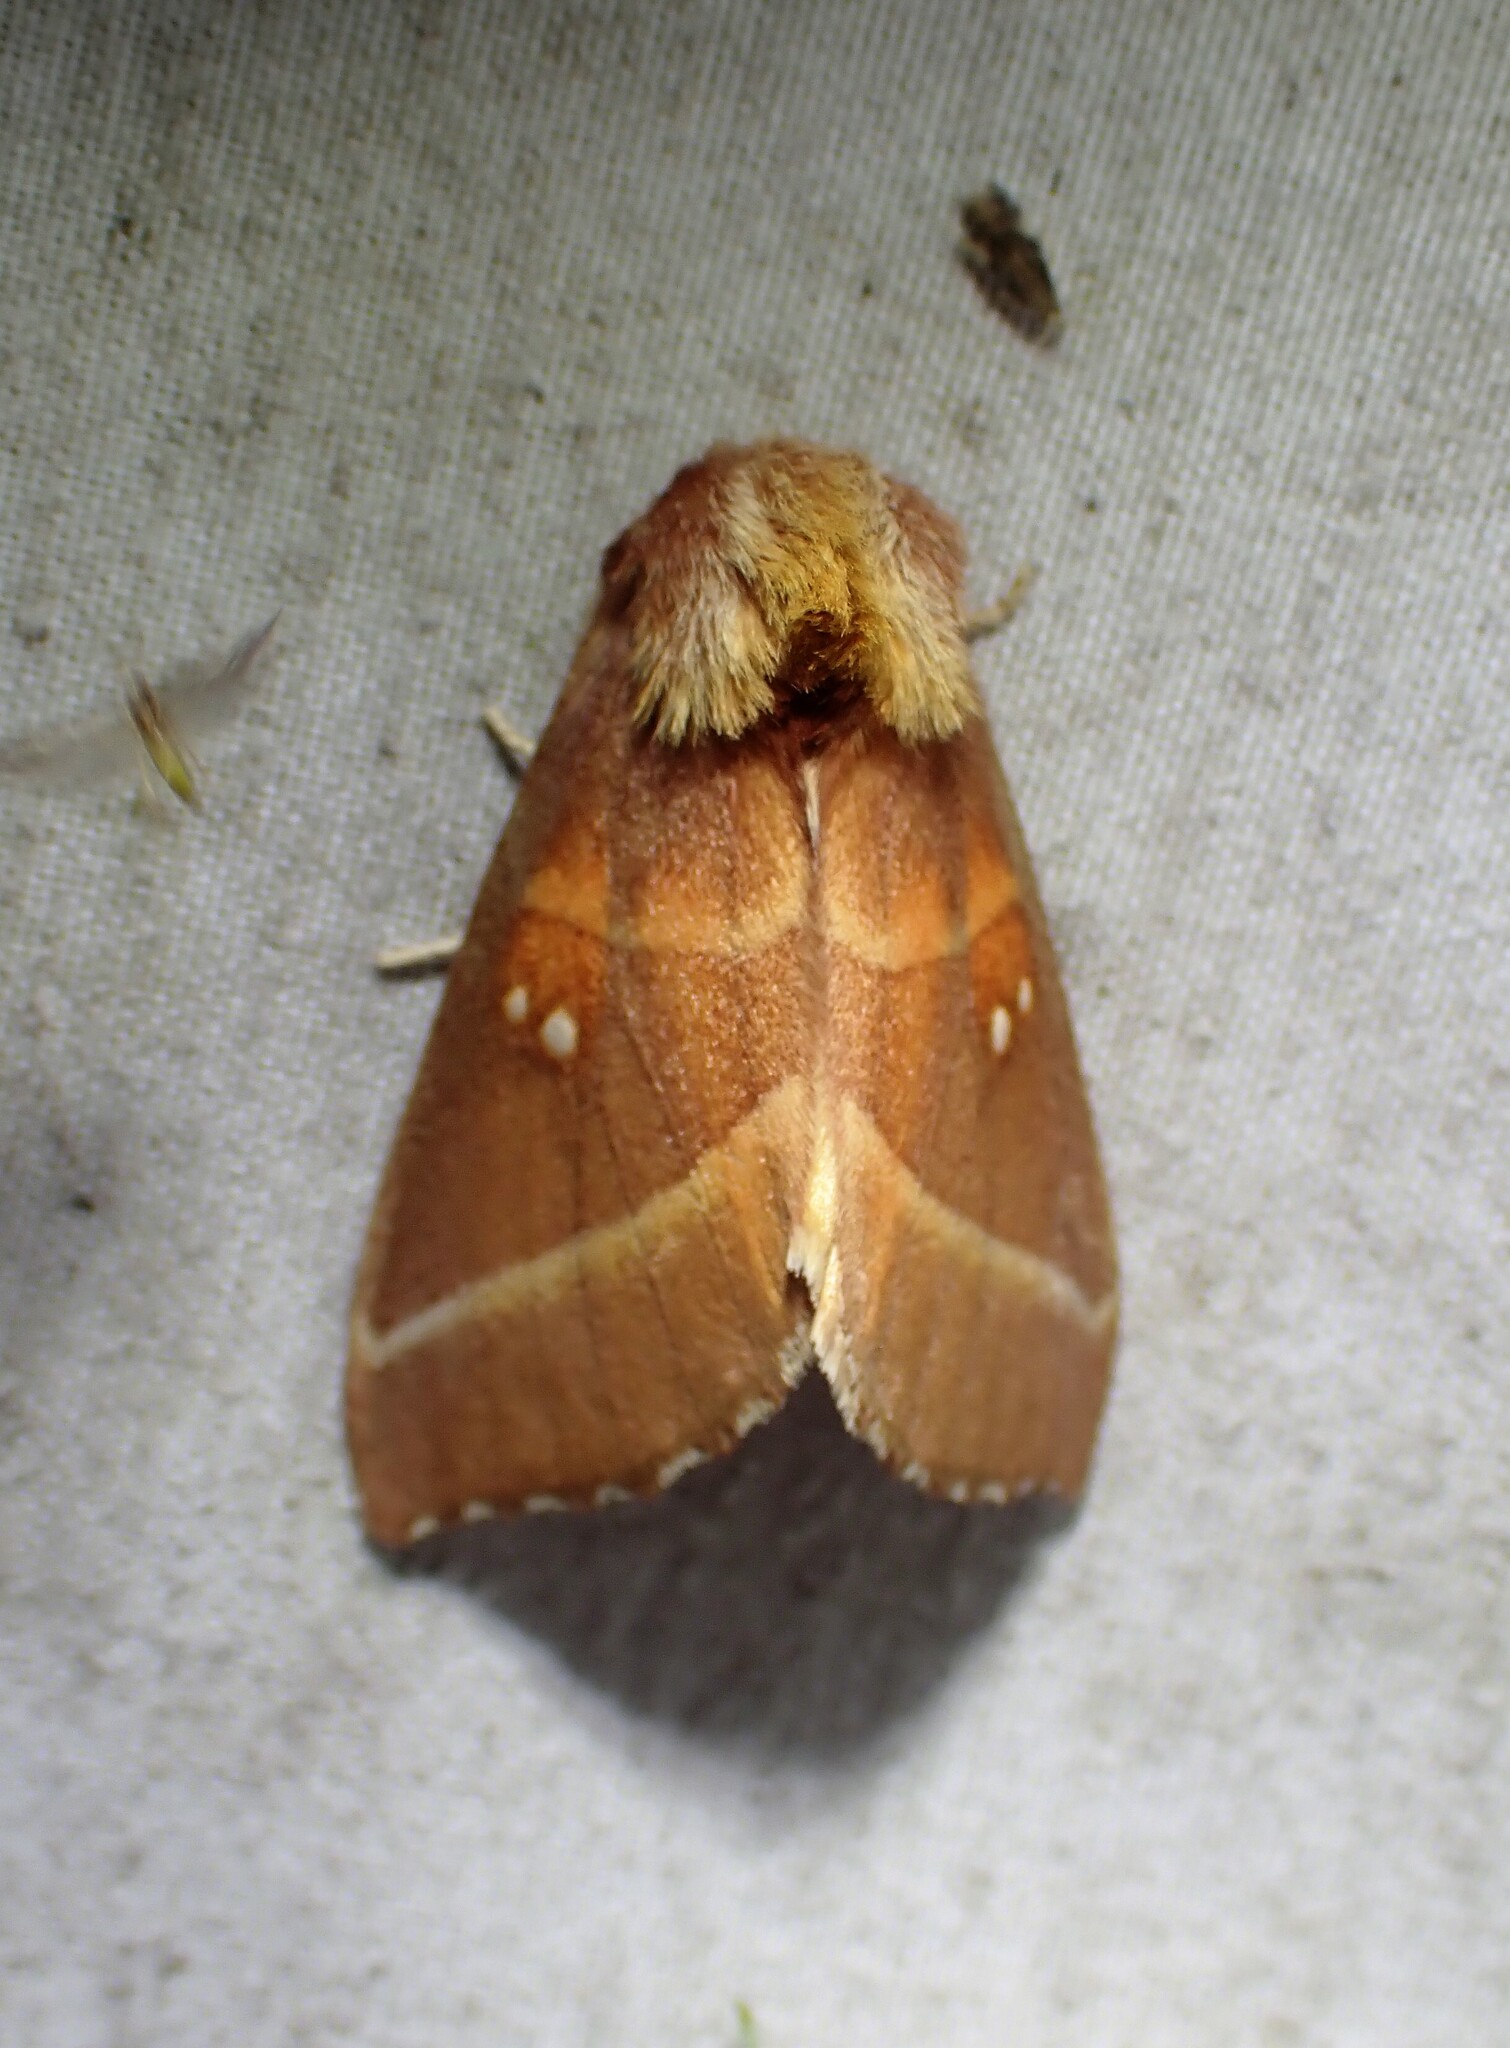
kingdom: Animalia
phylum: Arthropoda
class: Insecta
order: Lepidoptera
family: Notodontidae
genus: Nadata
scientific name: Nadata gibbosa
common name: White-dotted prominent
